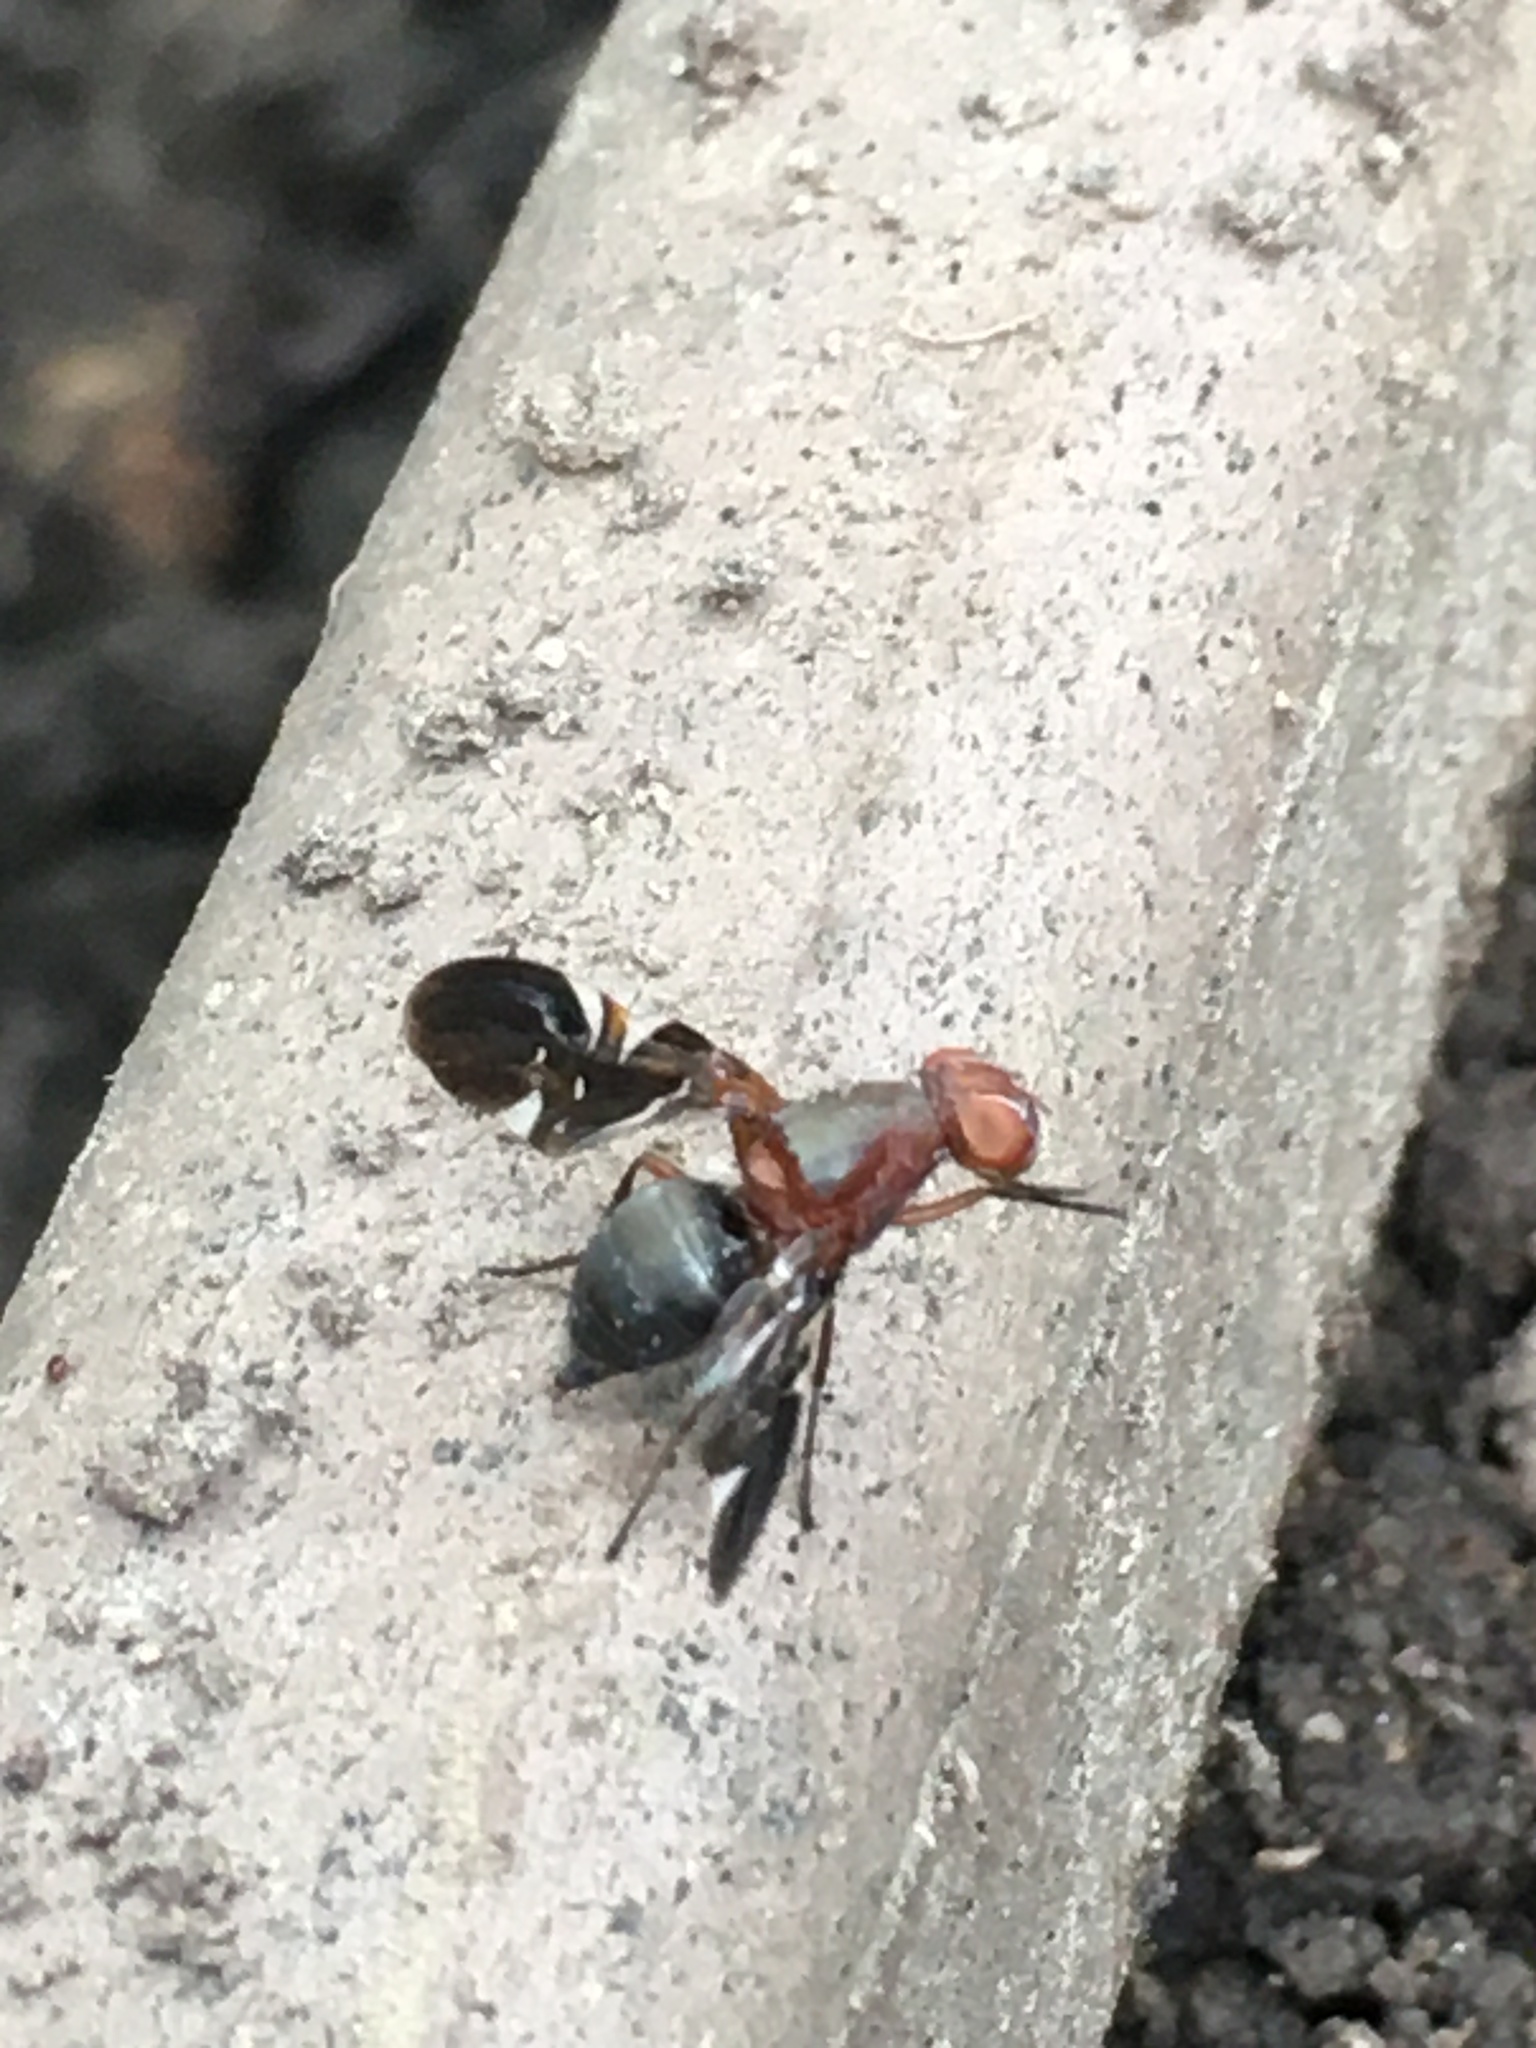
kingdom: Animalia
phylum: Arthropoda
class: Insecta
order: Diptera
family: Ulidiidae
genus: Delphinia
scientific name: Delphinia picta
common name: Common picture-winged fly
